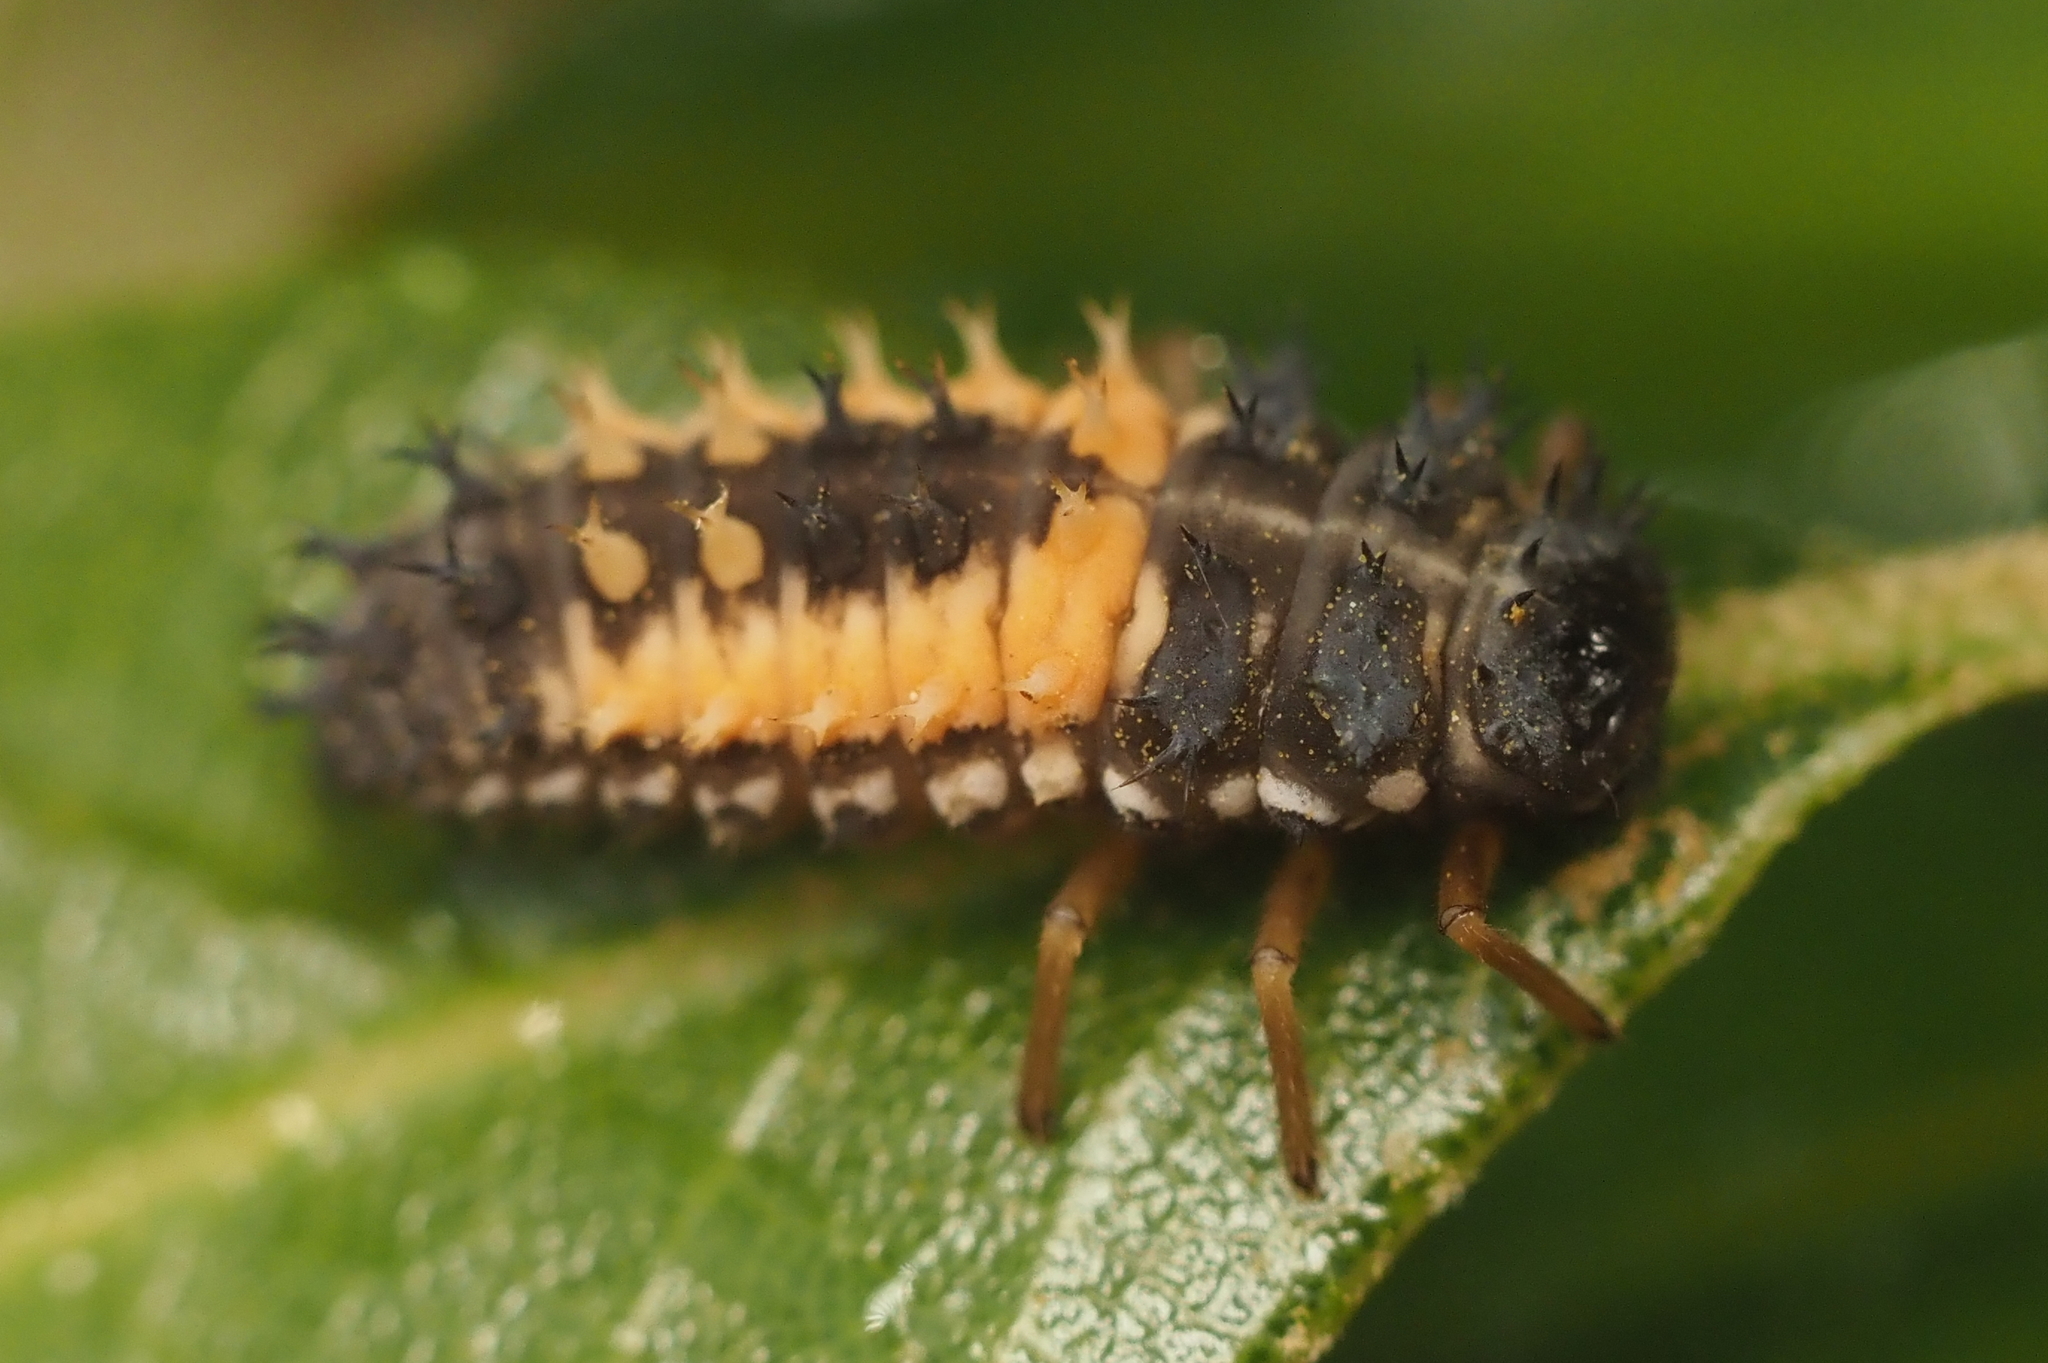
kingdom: Animalia
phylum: Arthropoda
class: Insecta
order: Coleoptera
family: Coccinellidae
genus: Harmonia
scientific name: Harmonia axyridis
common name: Harlequin ladybird
